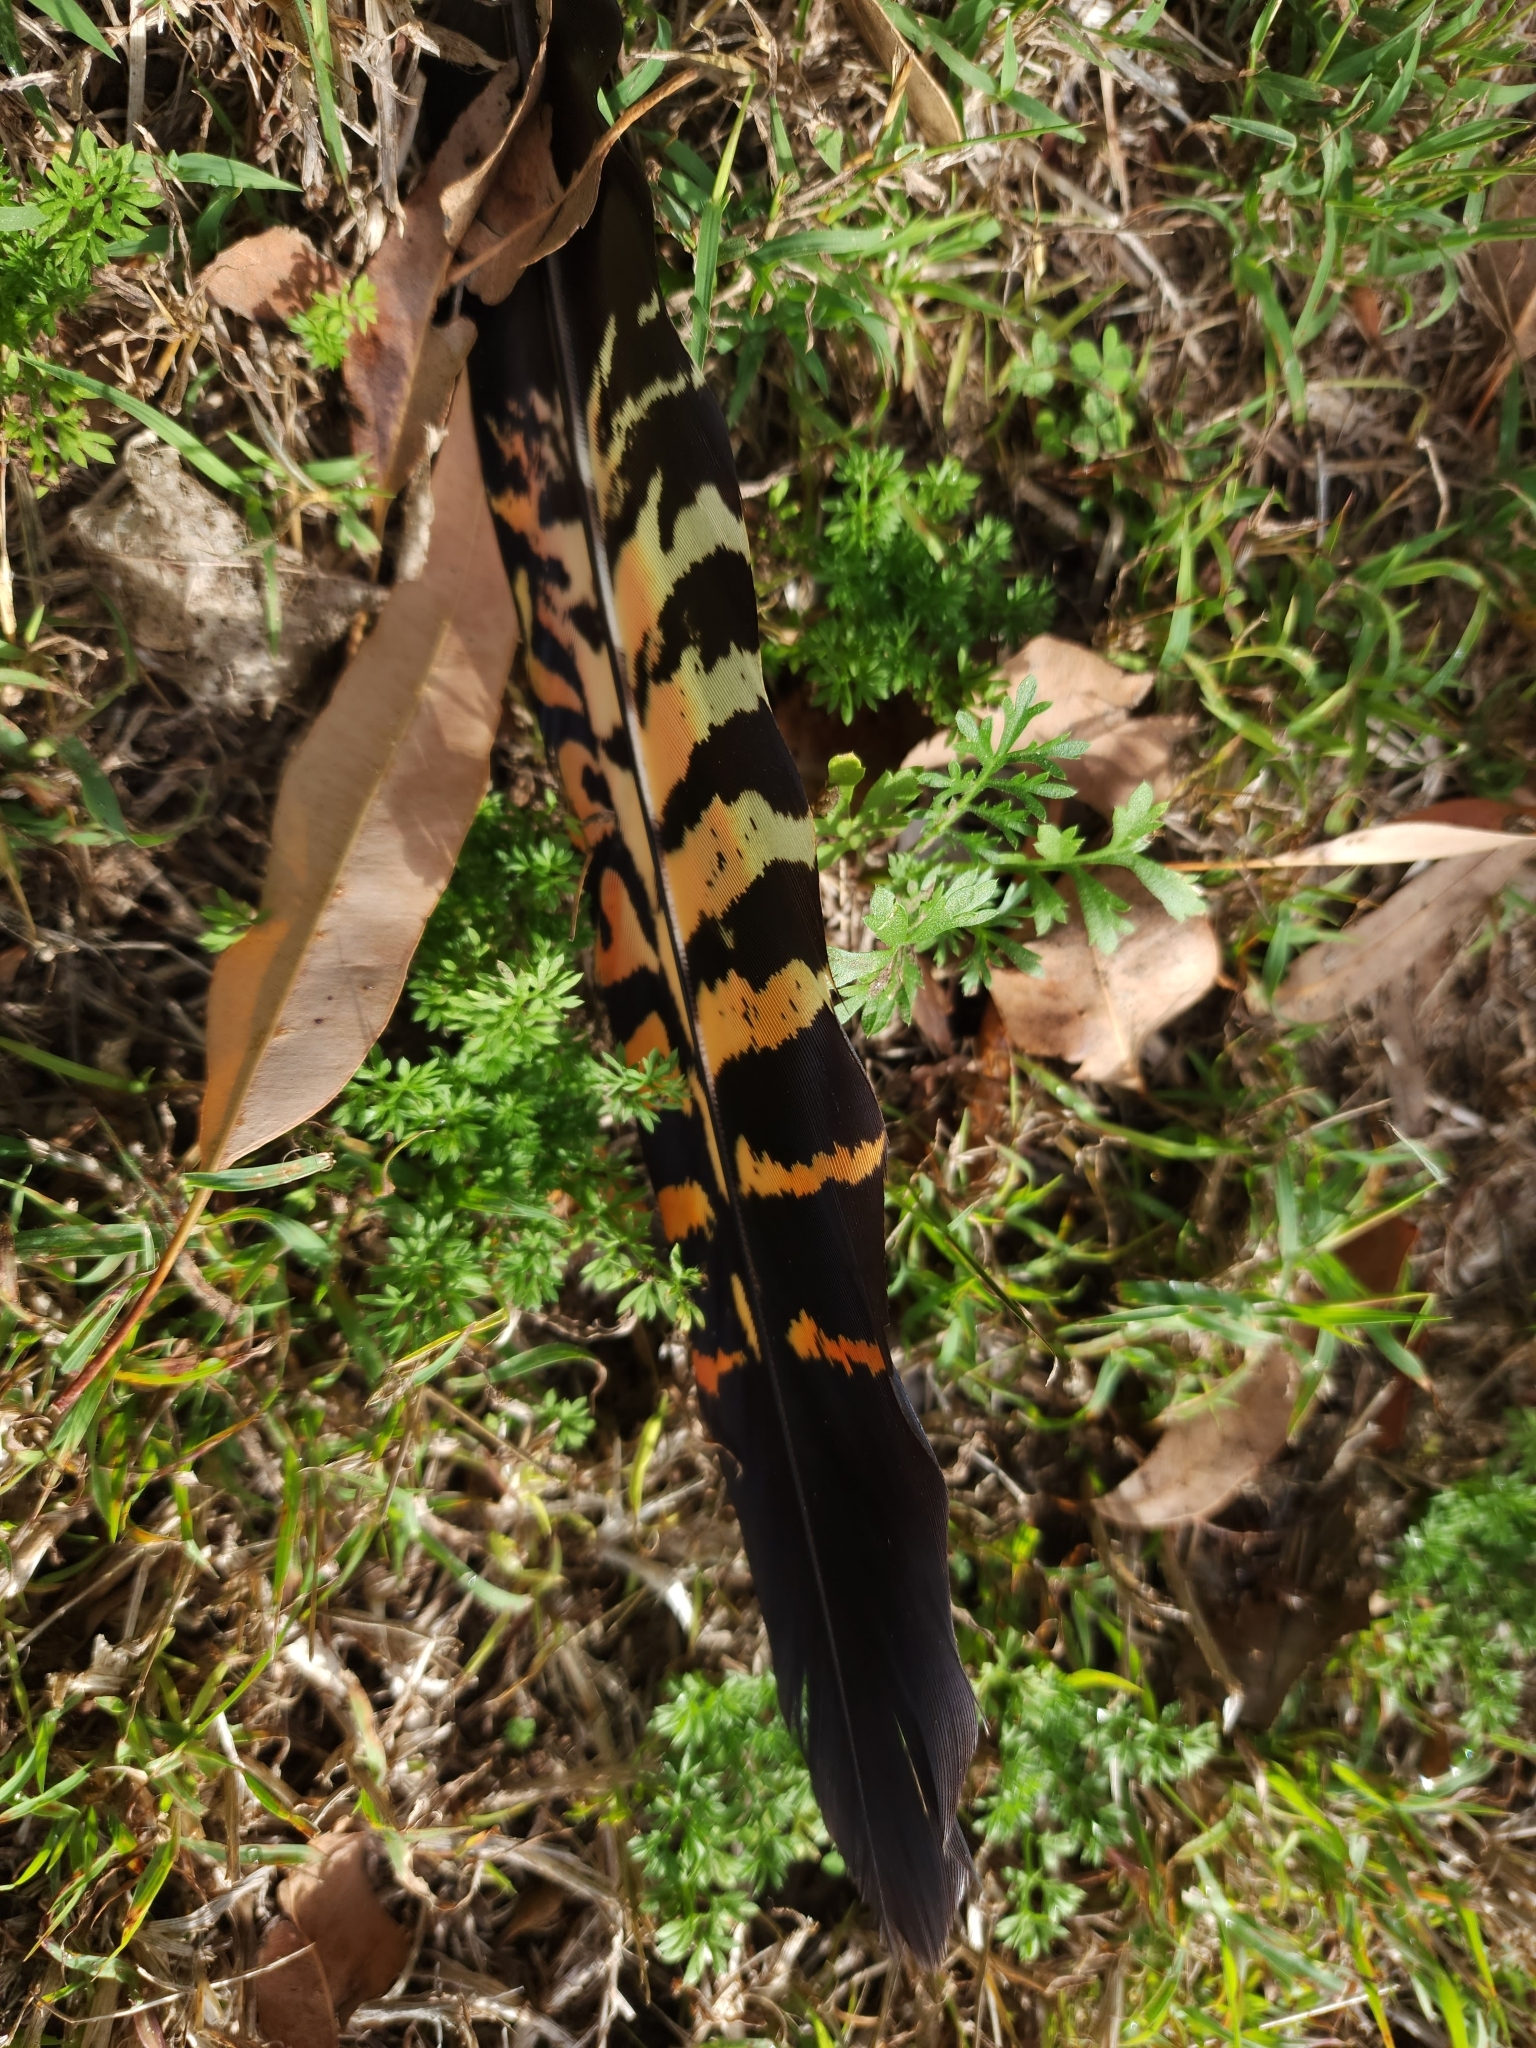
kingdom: Animalia
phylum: Chordata
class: Aves
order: Psittaciformes
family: Psittacidae
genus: Calyptorhynchus
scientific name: Calyptorhynchus banksii
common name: Red-tailed black cockatoo
